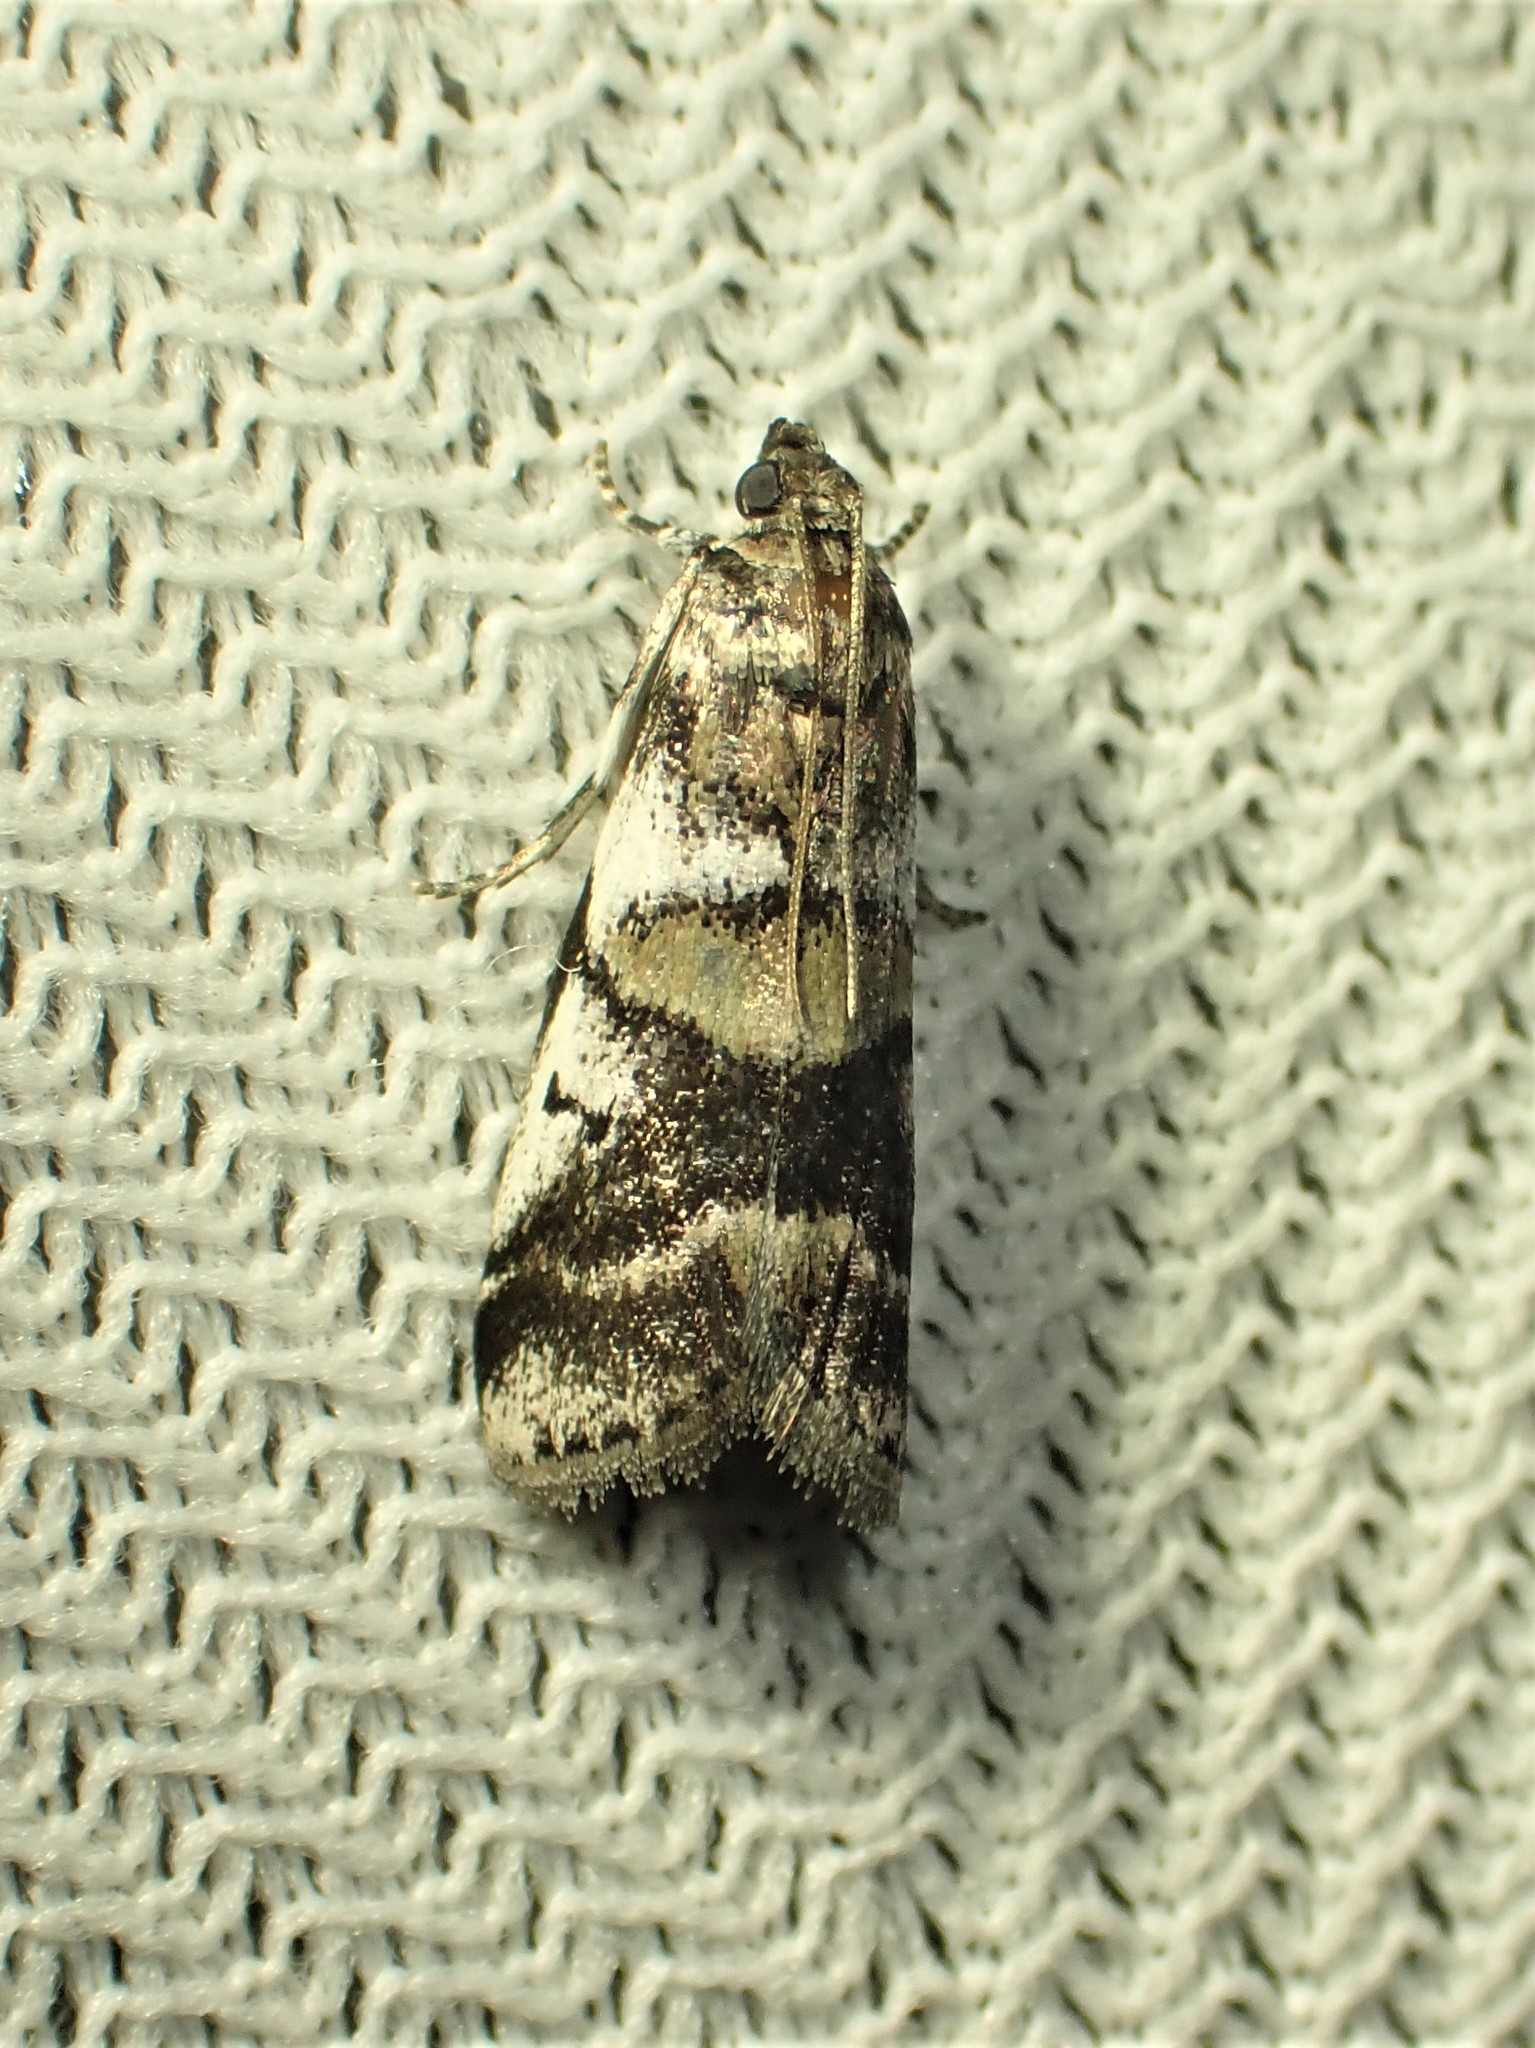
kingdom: Animalia
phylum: Arthropoda
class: Insecta
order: Lepidoptera
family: Pyralidae
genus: Acrobasis
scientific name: Acrobasis indigenella
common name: Leaf crumpler moth
